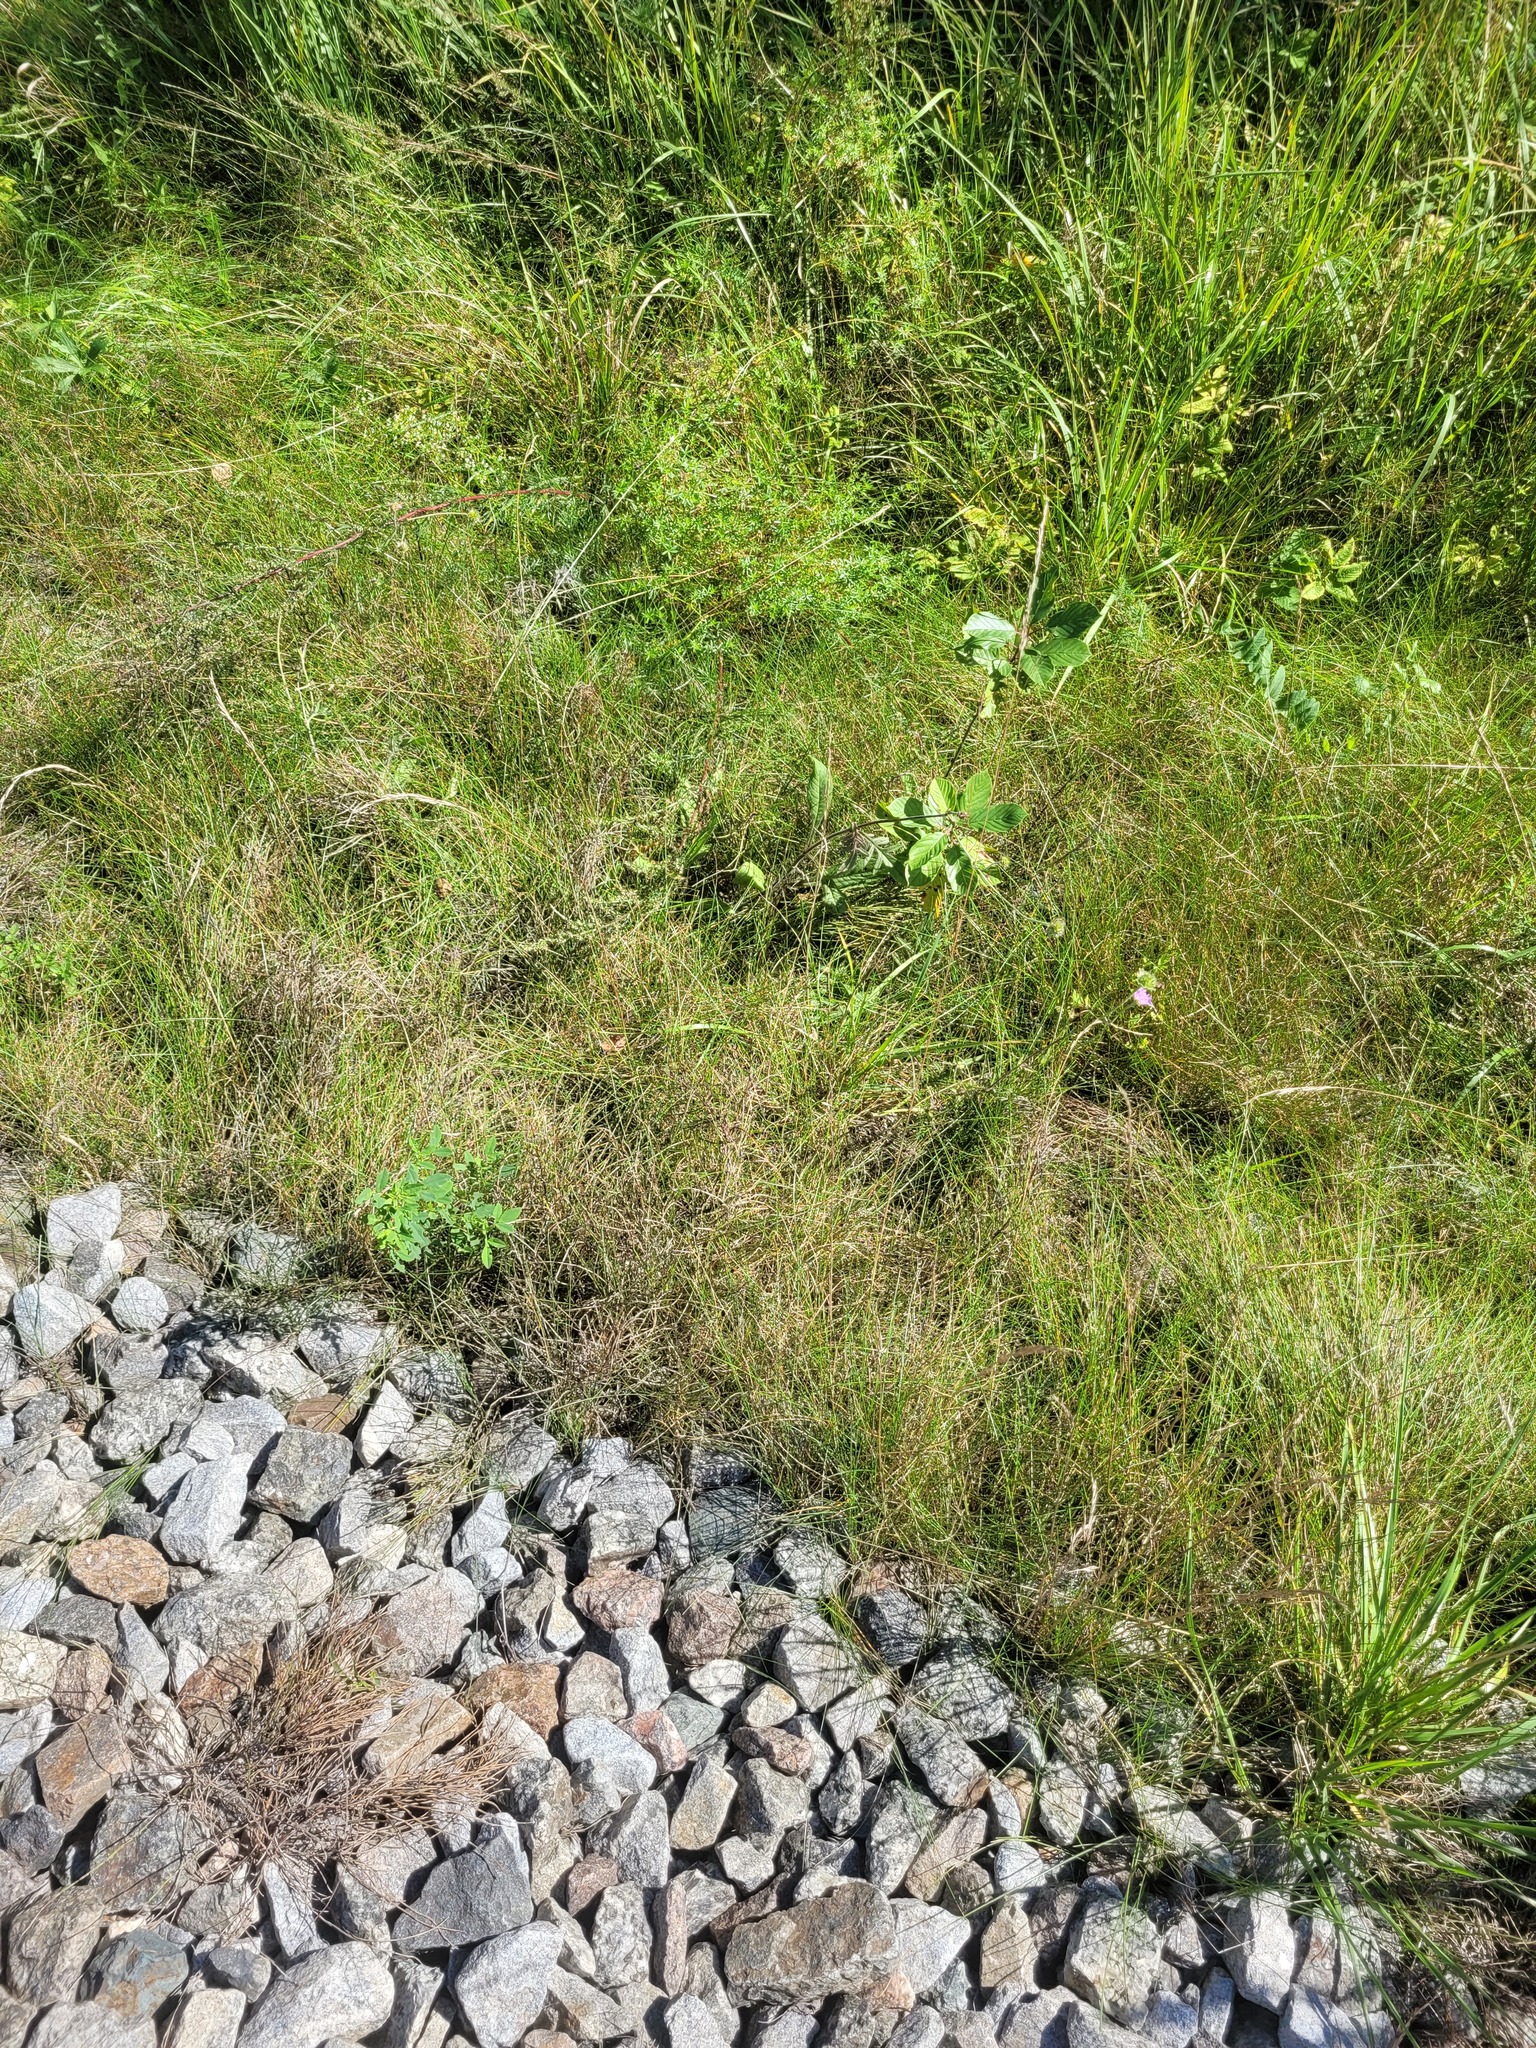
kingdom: Plantae
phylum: Tracheophyta
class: Liliopsida
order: Poales
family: Poaceae
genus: Festuca
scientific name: Festuca rubra
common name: Red fescue
